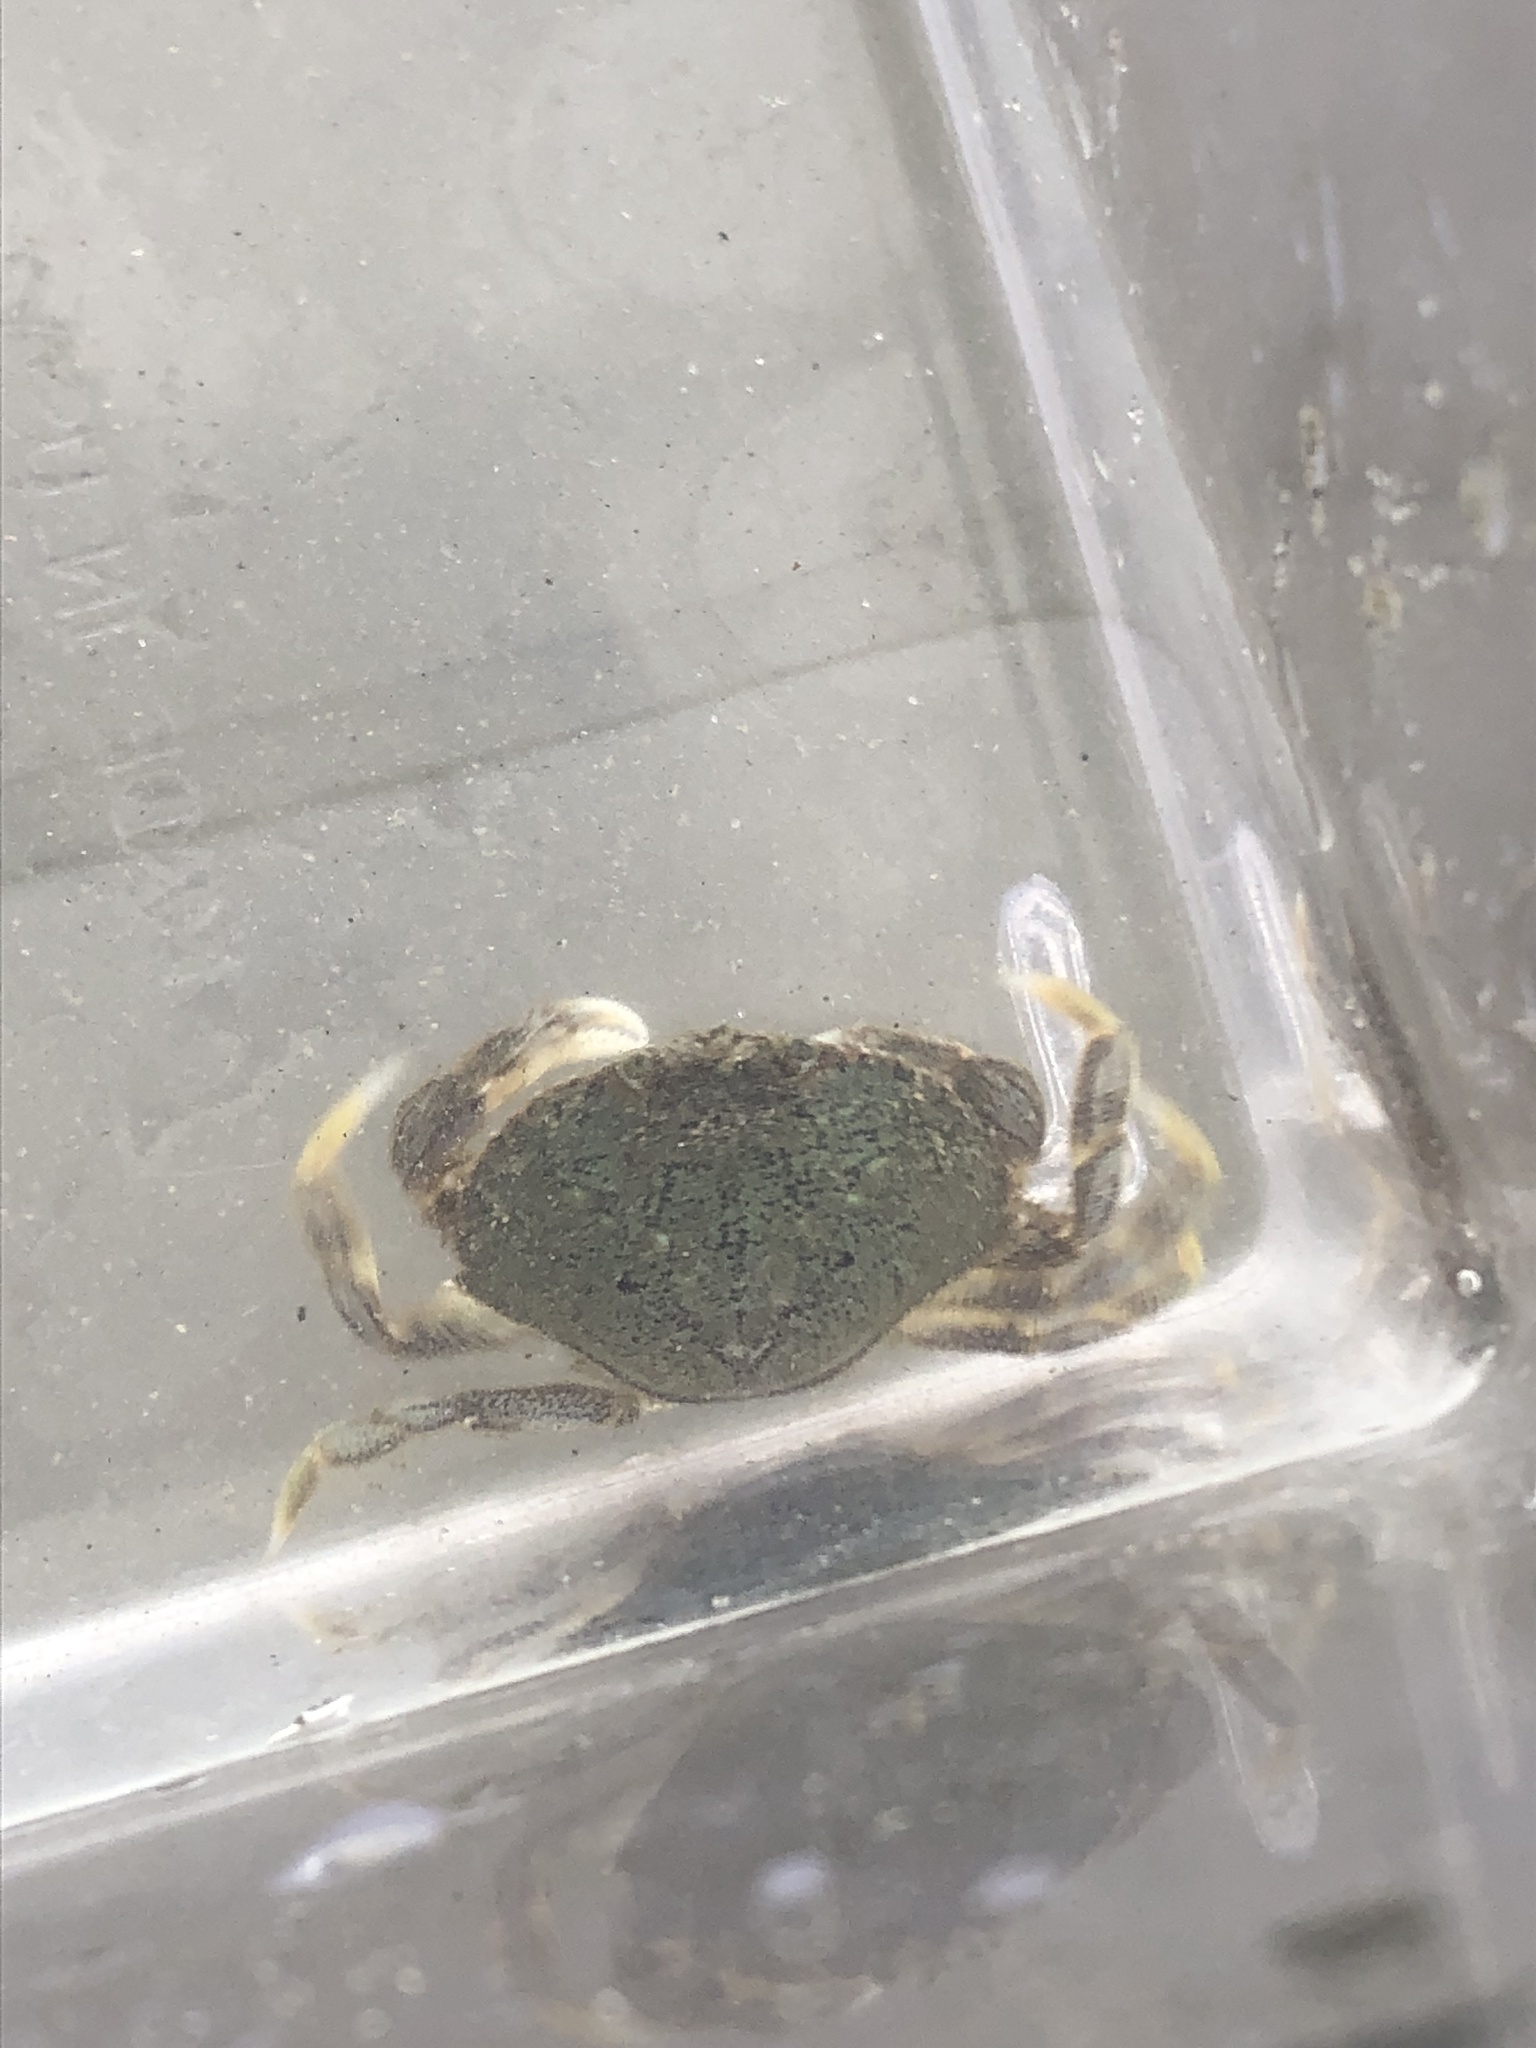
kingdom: Animalia
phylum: Arthropoda
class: Malacostraca
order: Decapoda
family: Cancridae
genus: Metacarcinus
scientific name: Metacarcinus magister
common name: Californian crab
